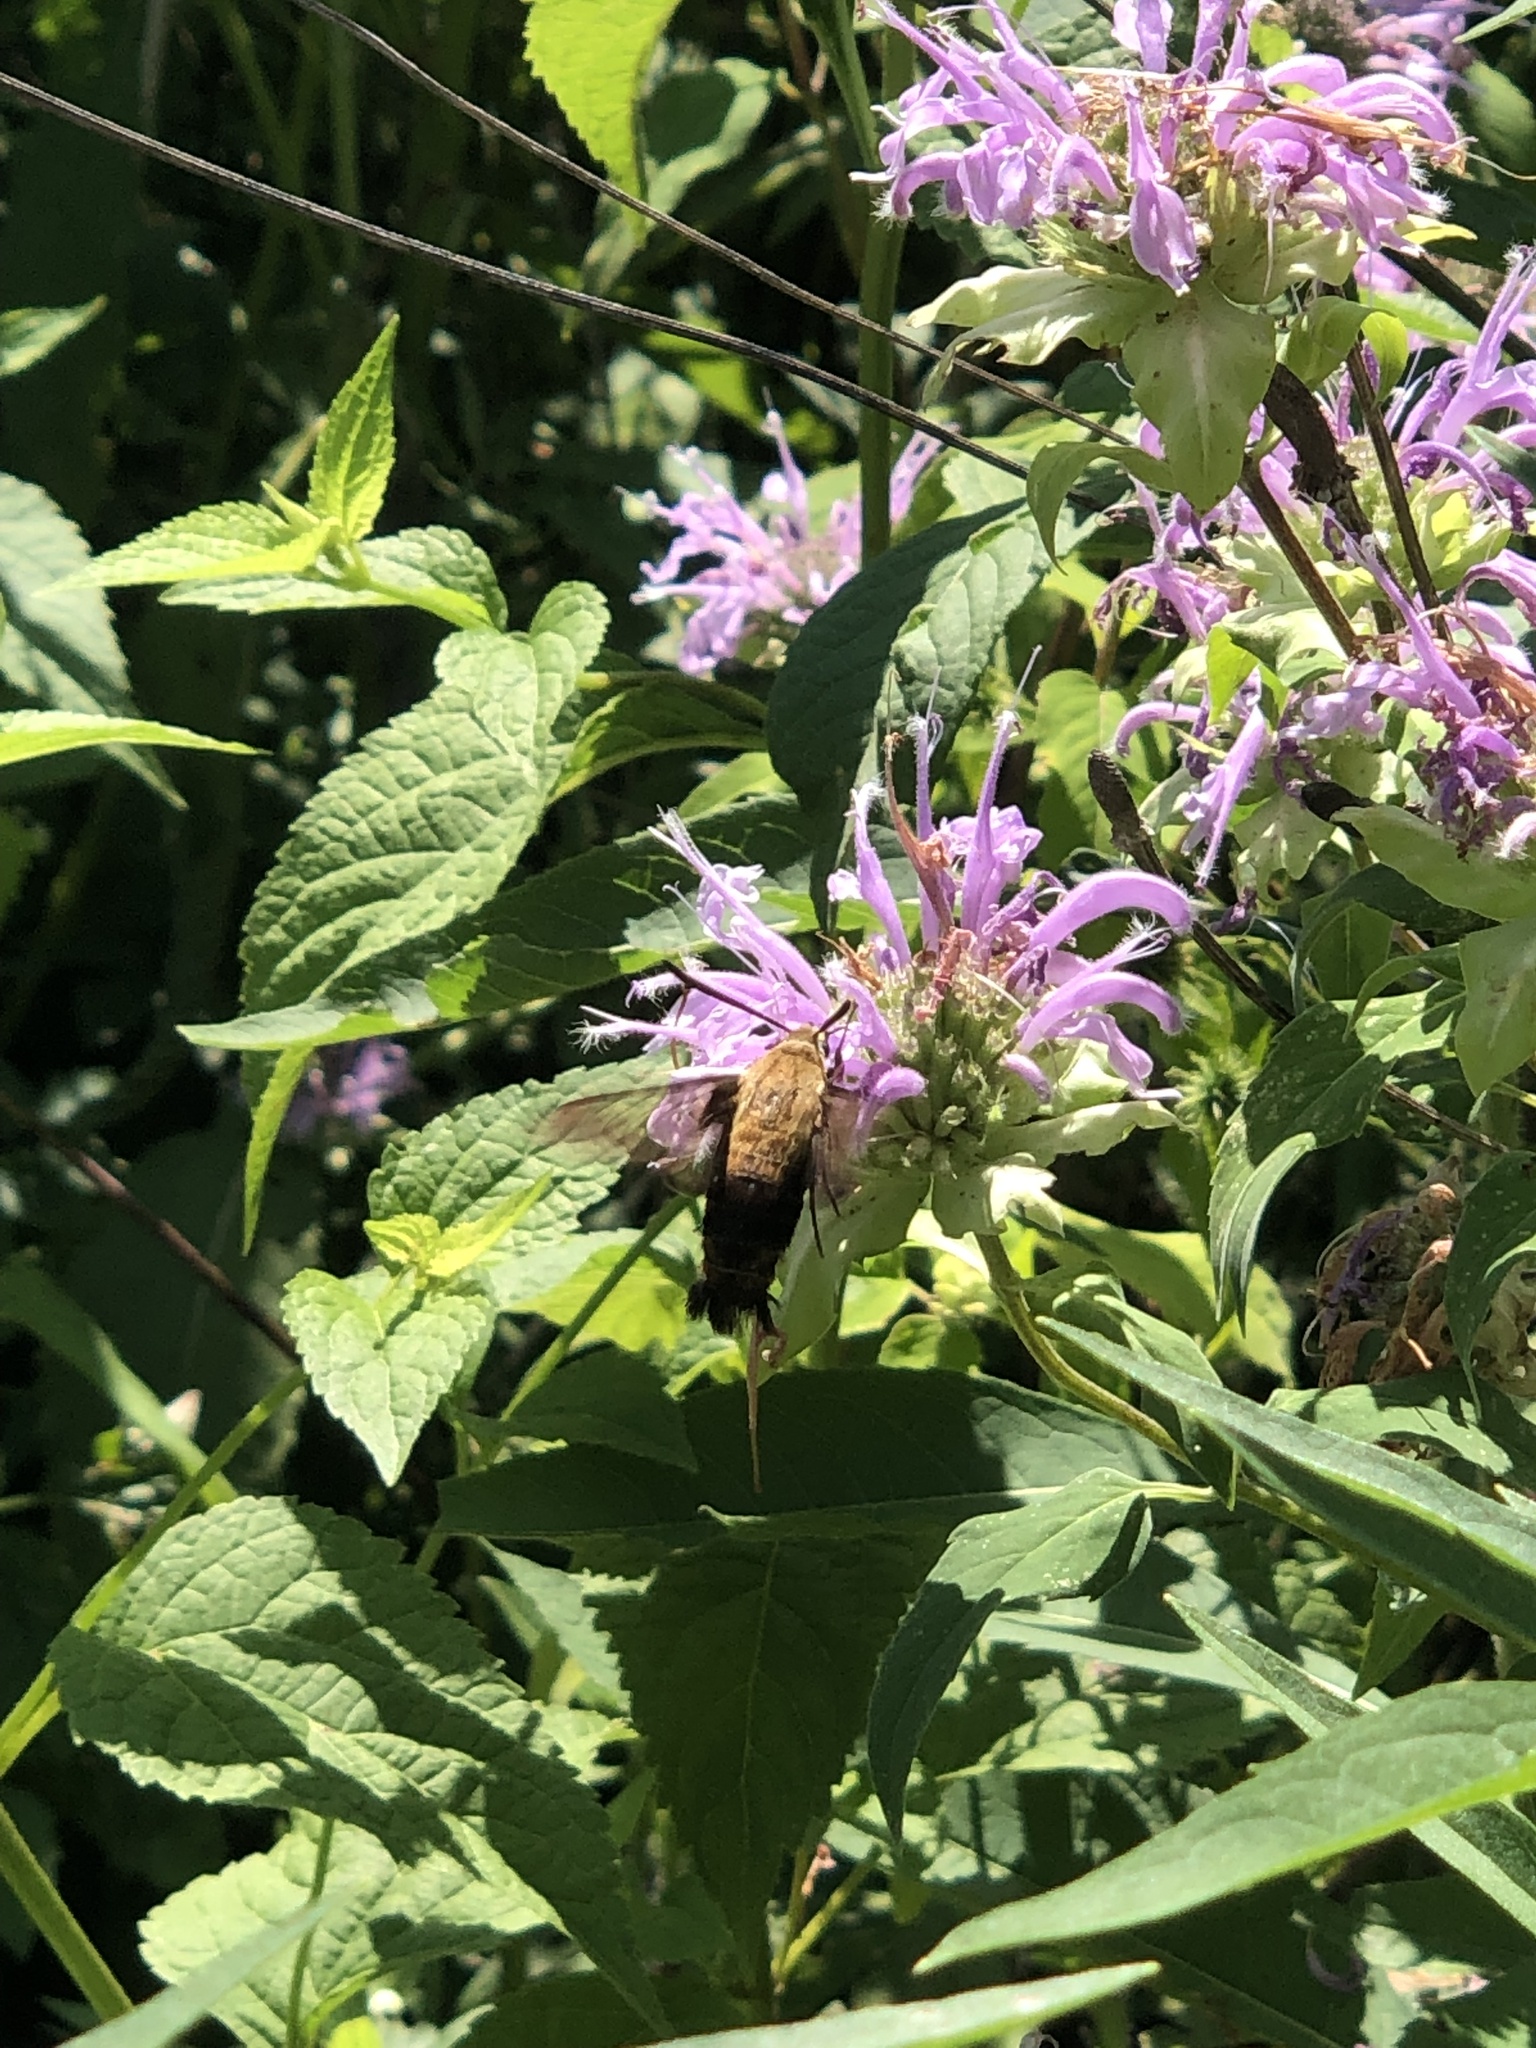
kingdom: Animalia
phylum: Arthropoda
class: Insecta
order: Lepidoptera
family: Sphingidae
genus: Hemaris
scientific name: Hemaris diffinis
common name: Bumblebee moth
